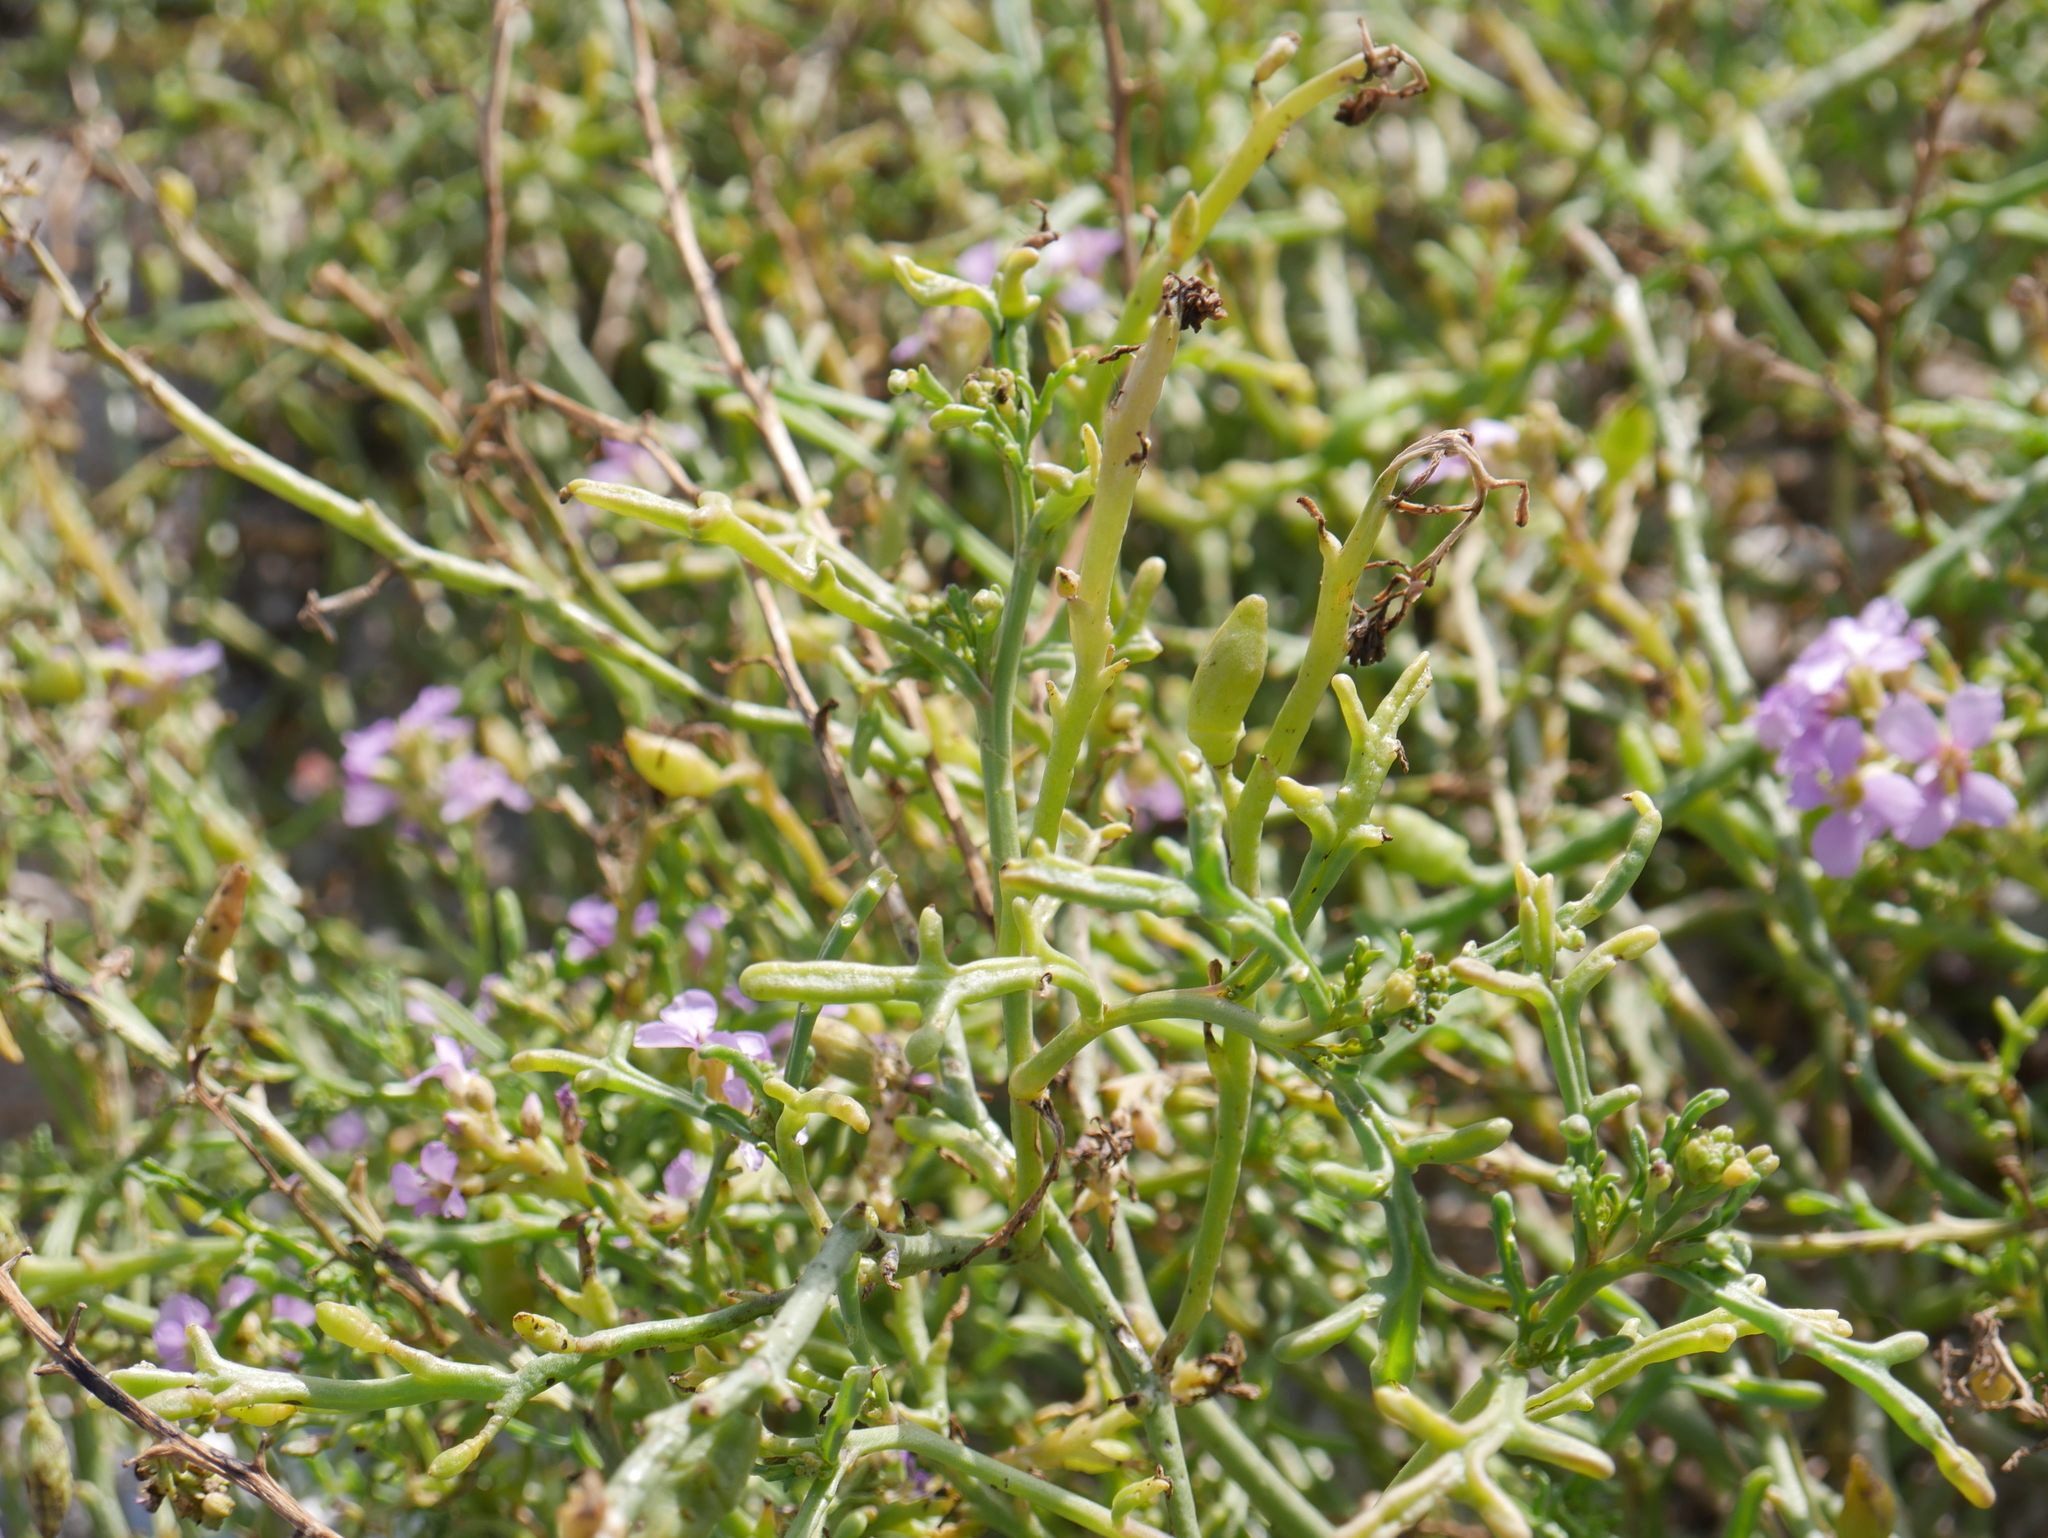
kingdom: Plantae
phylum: Tracheophyta
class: Magnoliopsida
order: Brassicales
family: Brassicaceae
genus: Cakile
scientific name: Cakile maritima
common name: Sea rocket
